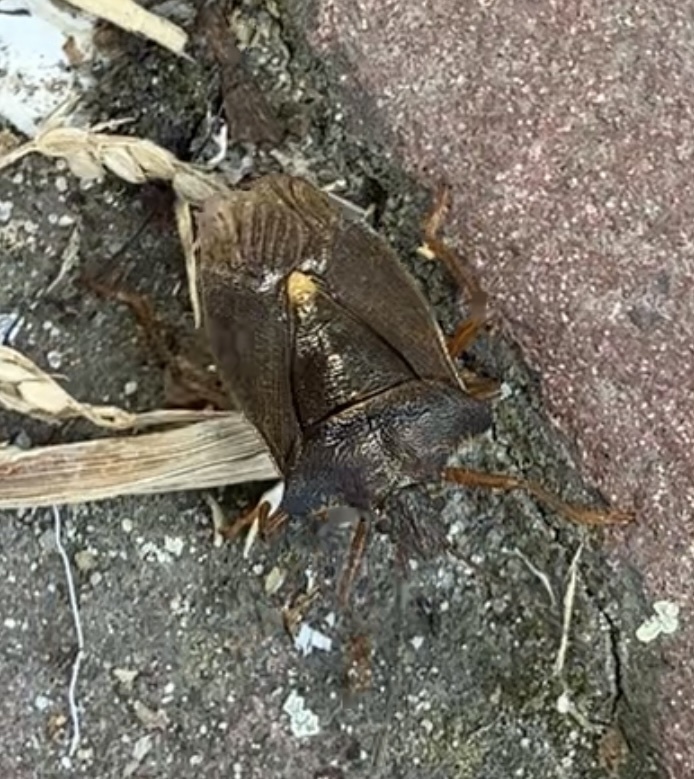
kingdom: Animalia
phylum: Arthropoda
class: Insecta
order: Hemiptera
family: Pentatomidae
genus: Pentatoma
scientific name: Pentatoma rufipes
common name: Forest bug
